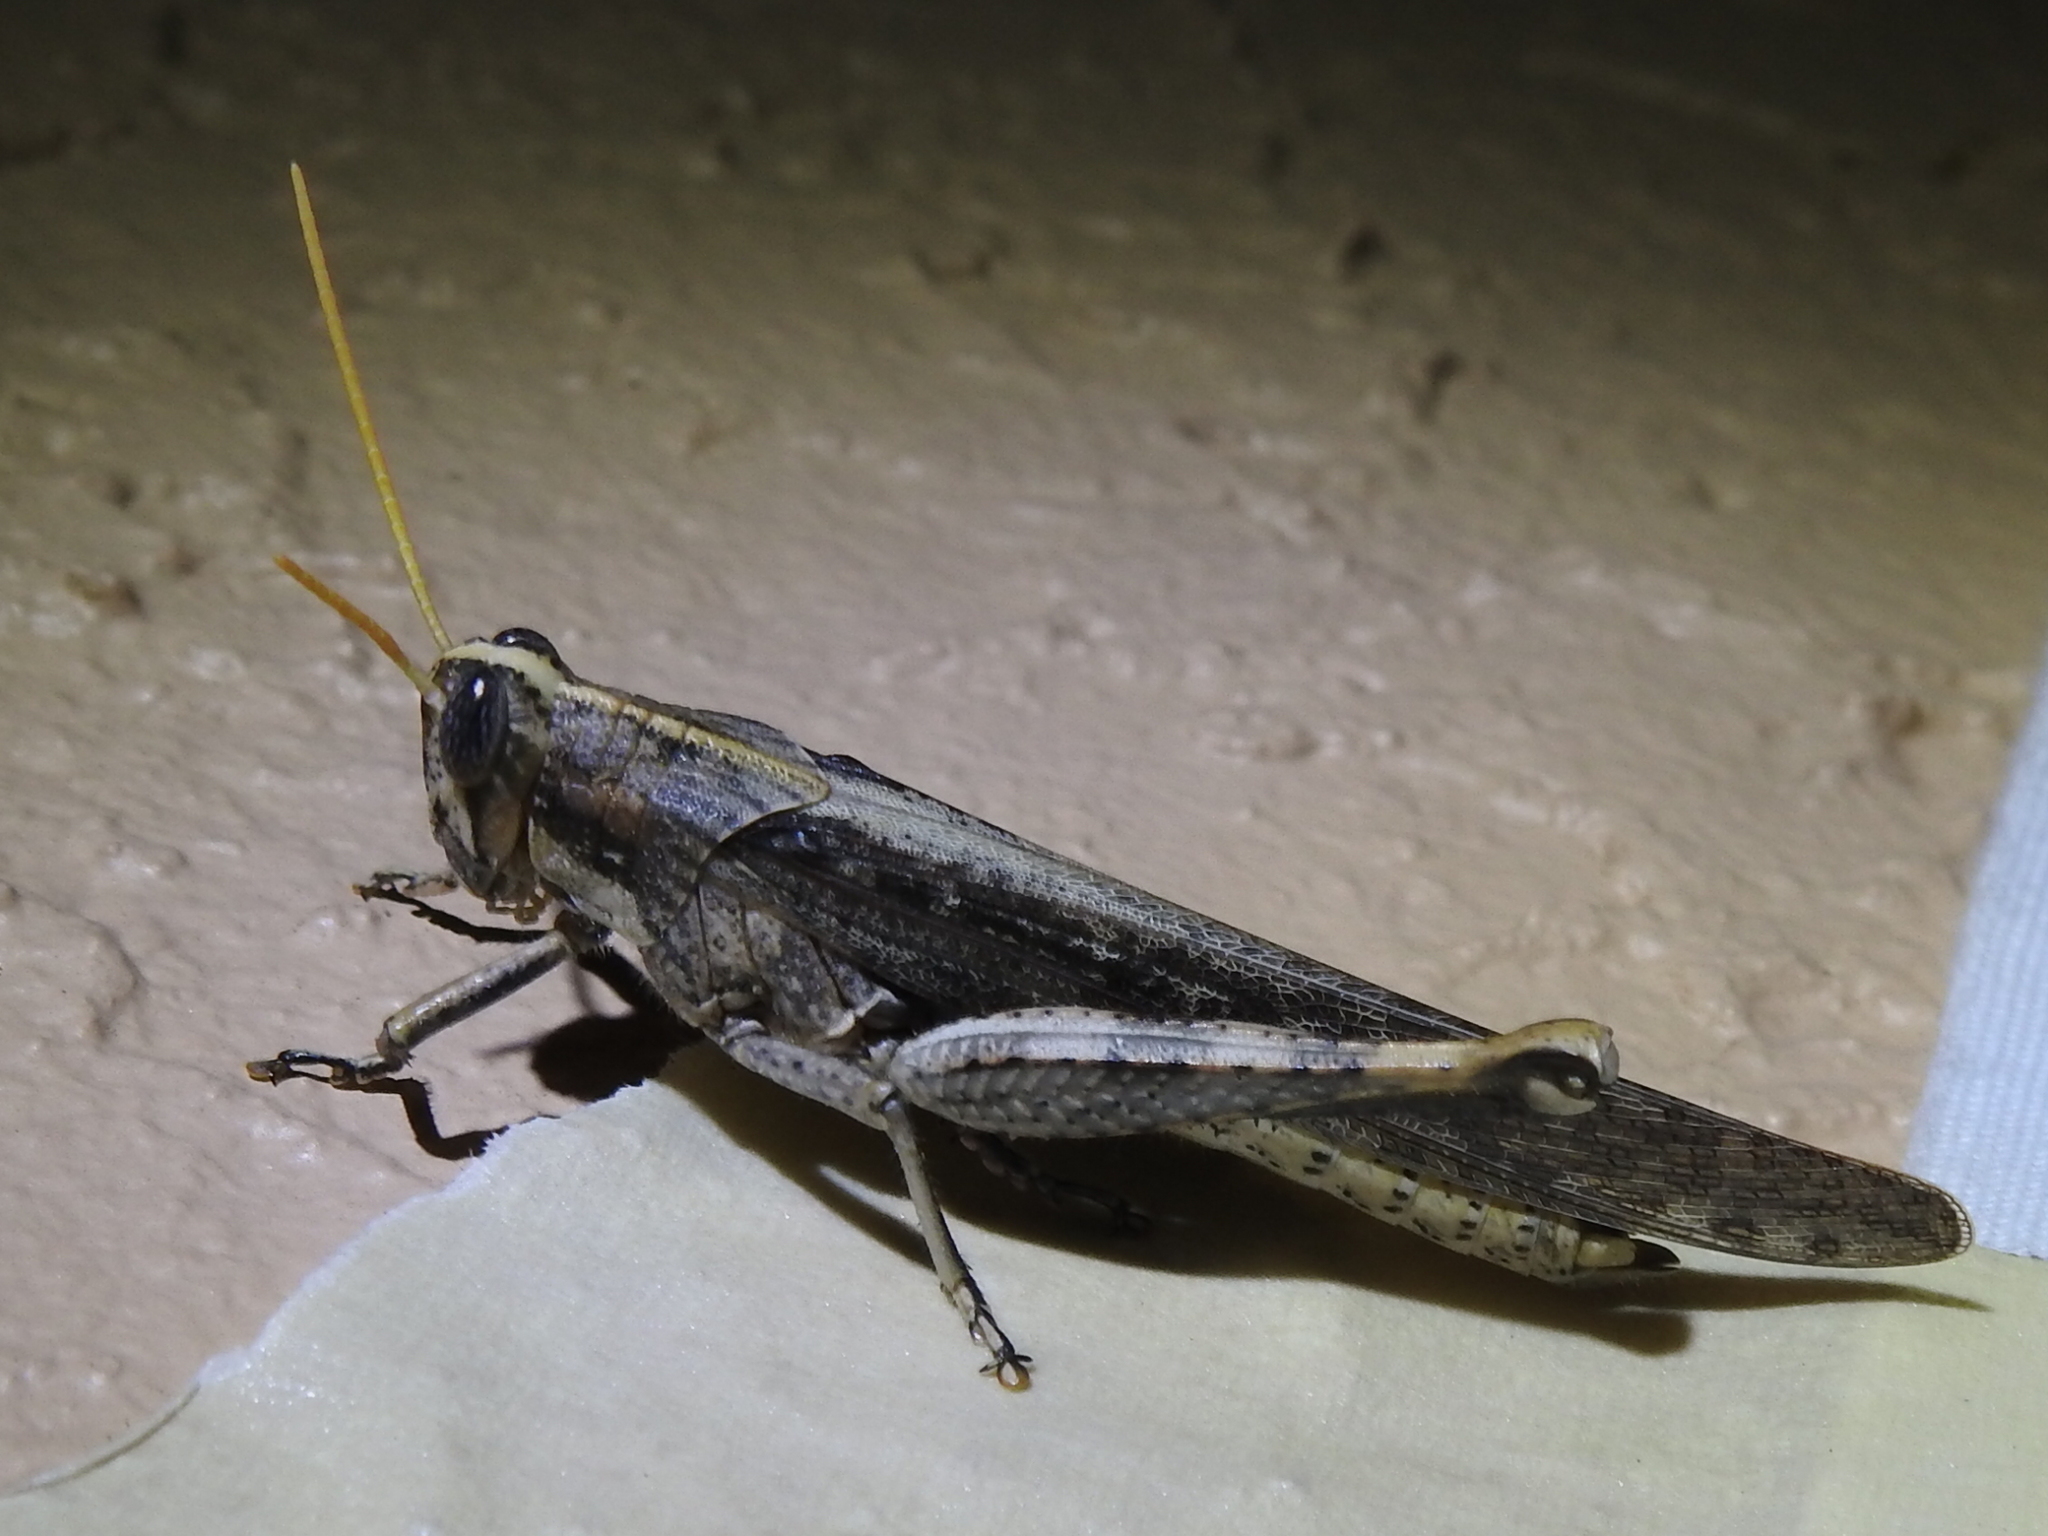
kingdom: Animalia
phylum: Arthropoda
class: Insecta
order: Orthoptera
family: Acrididae
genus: Schistocerca
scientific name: Schistocerca nitens
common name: Vagrant grasshopper
